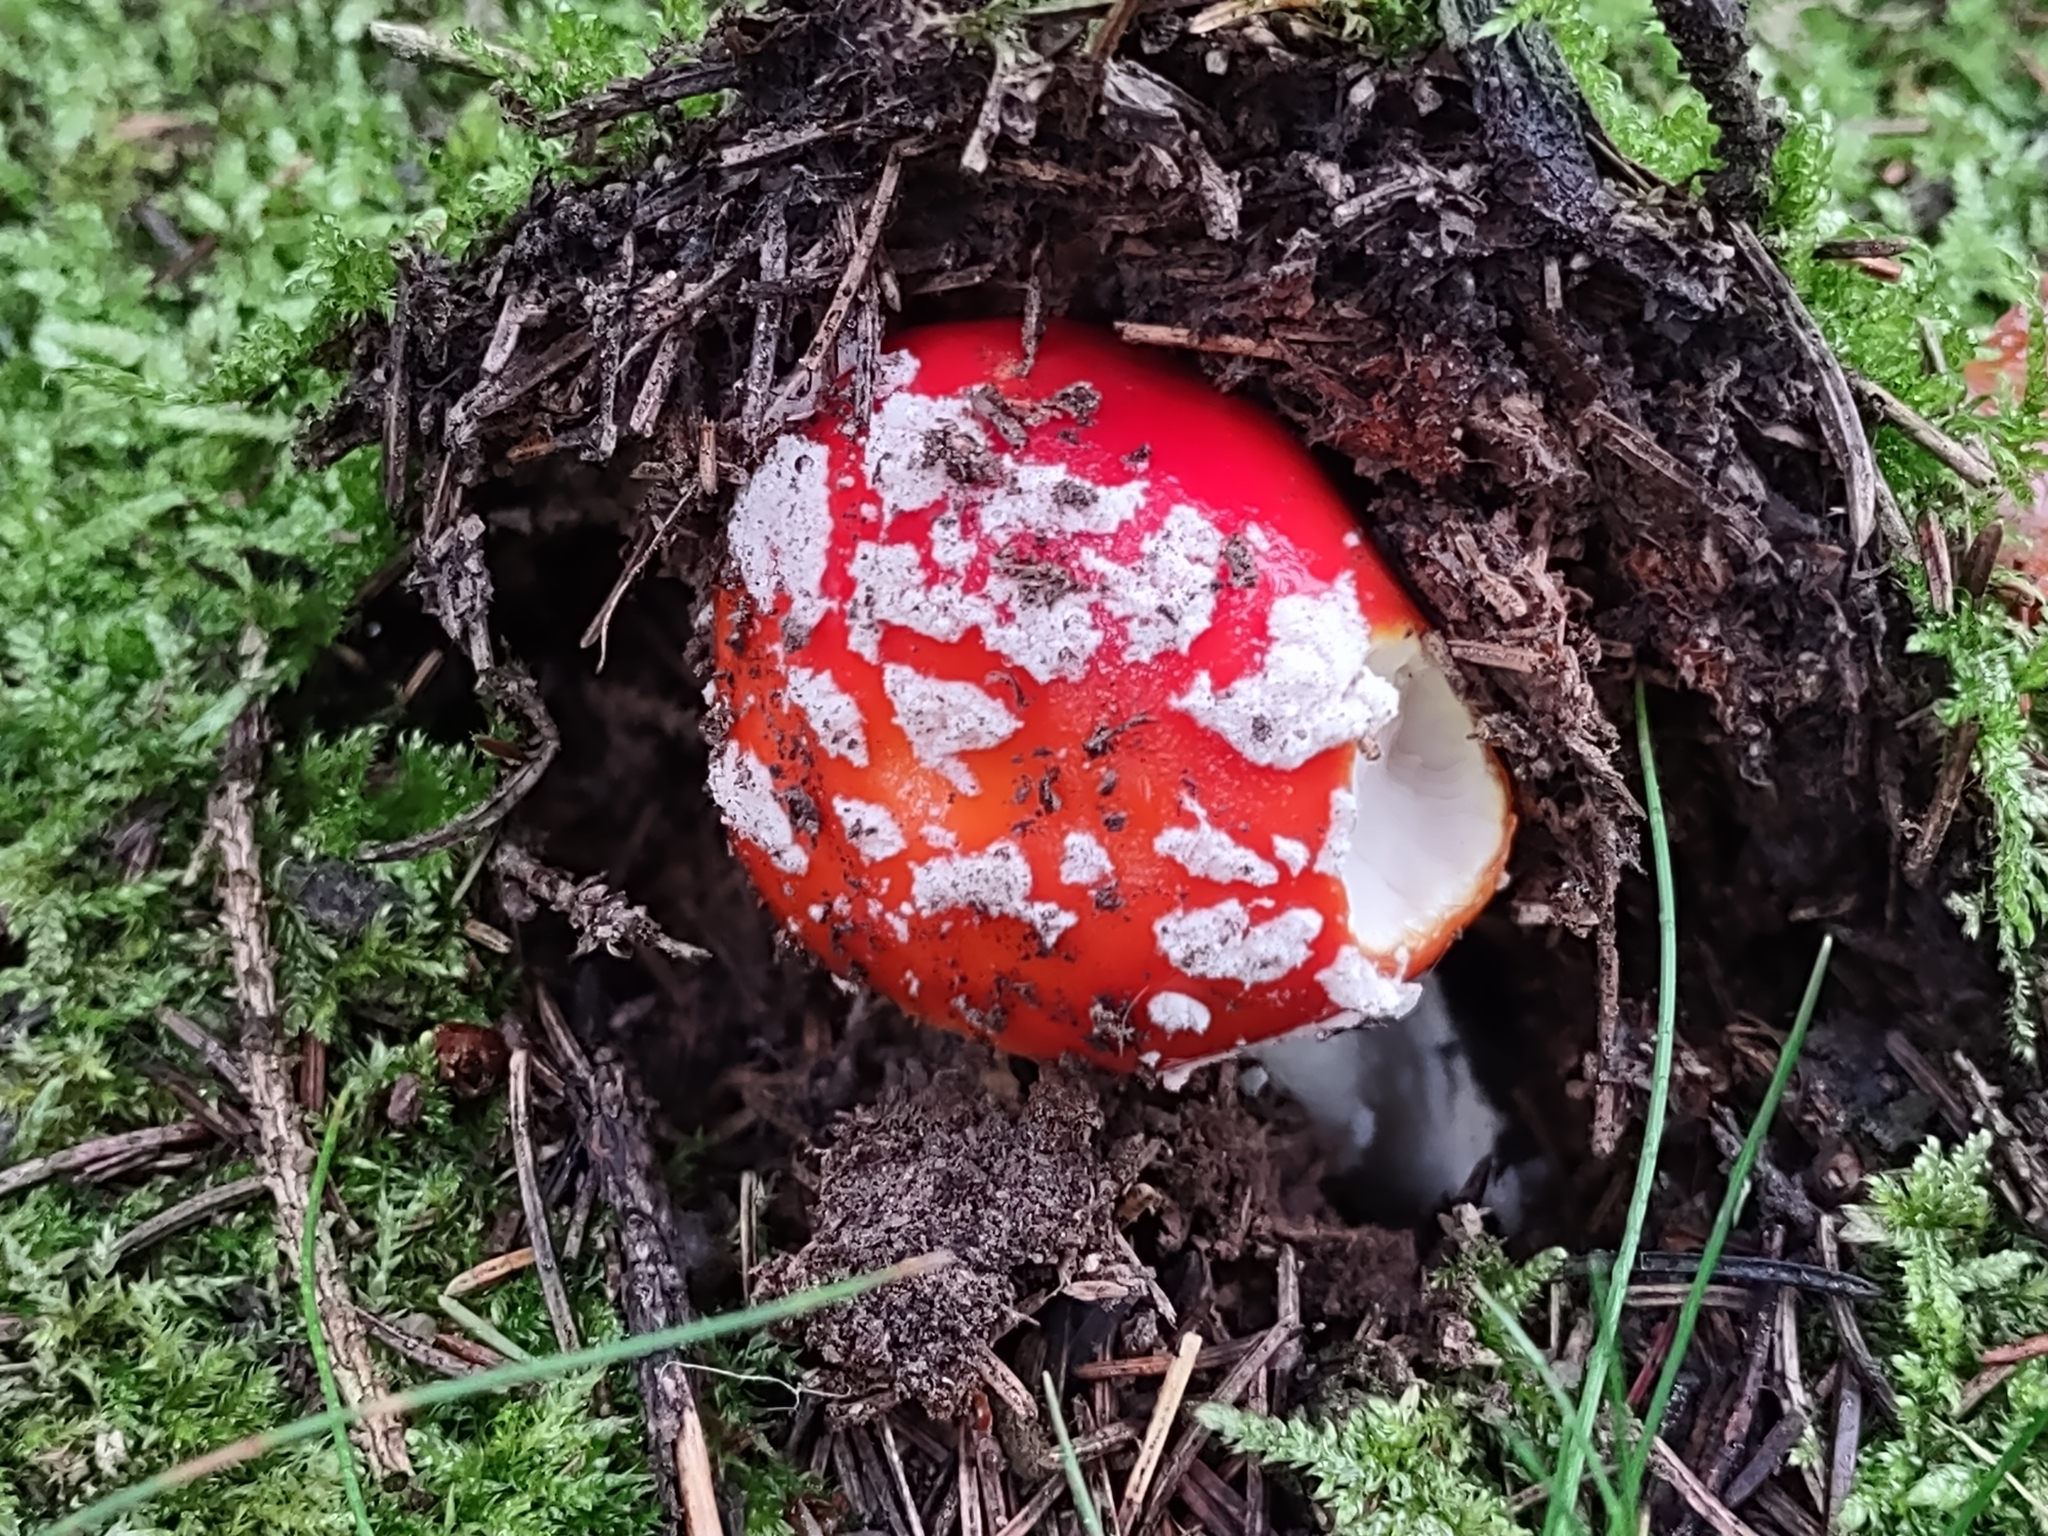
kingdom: Fungi
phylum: Basidiomycota
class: Agaricomycetes
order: Agaricales
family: Amanitaceae
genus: Amanita
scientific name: Amanita muscaria
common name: Fly agaric
